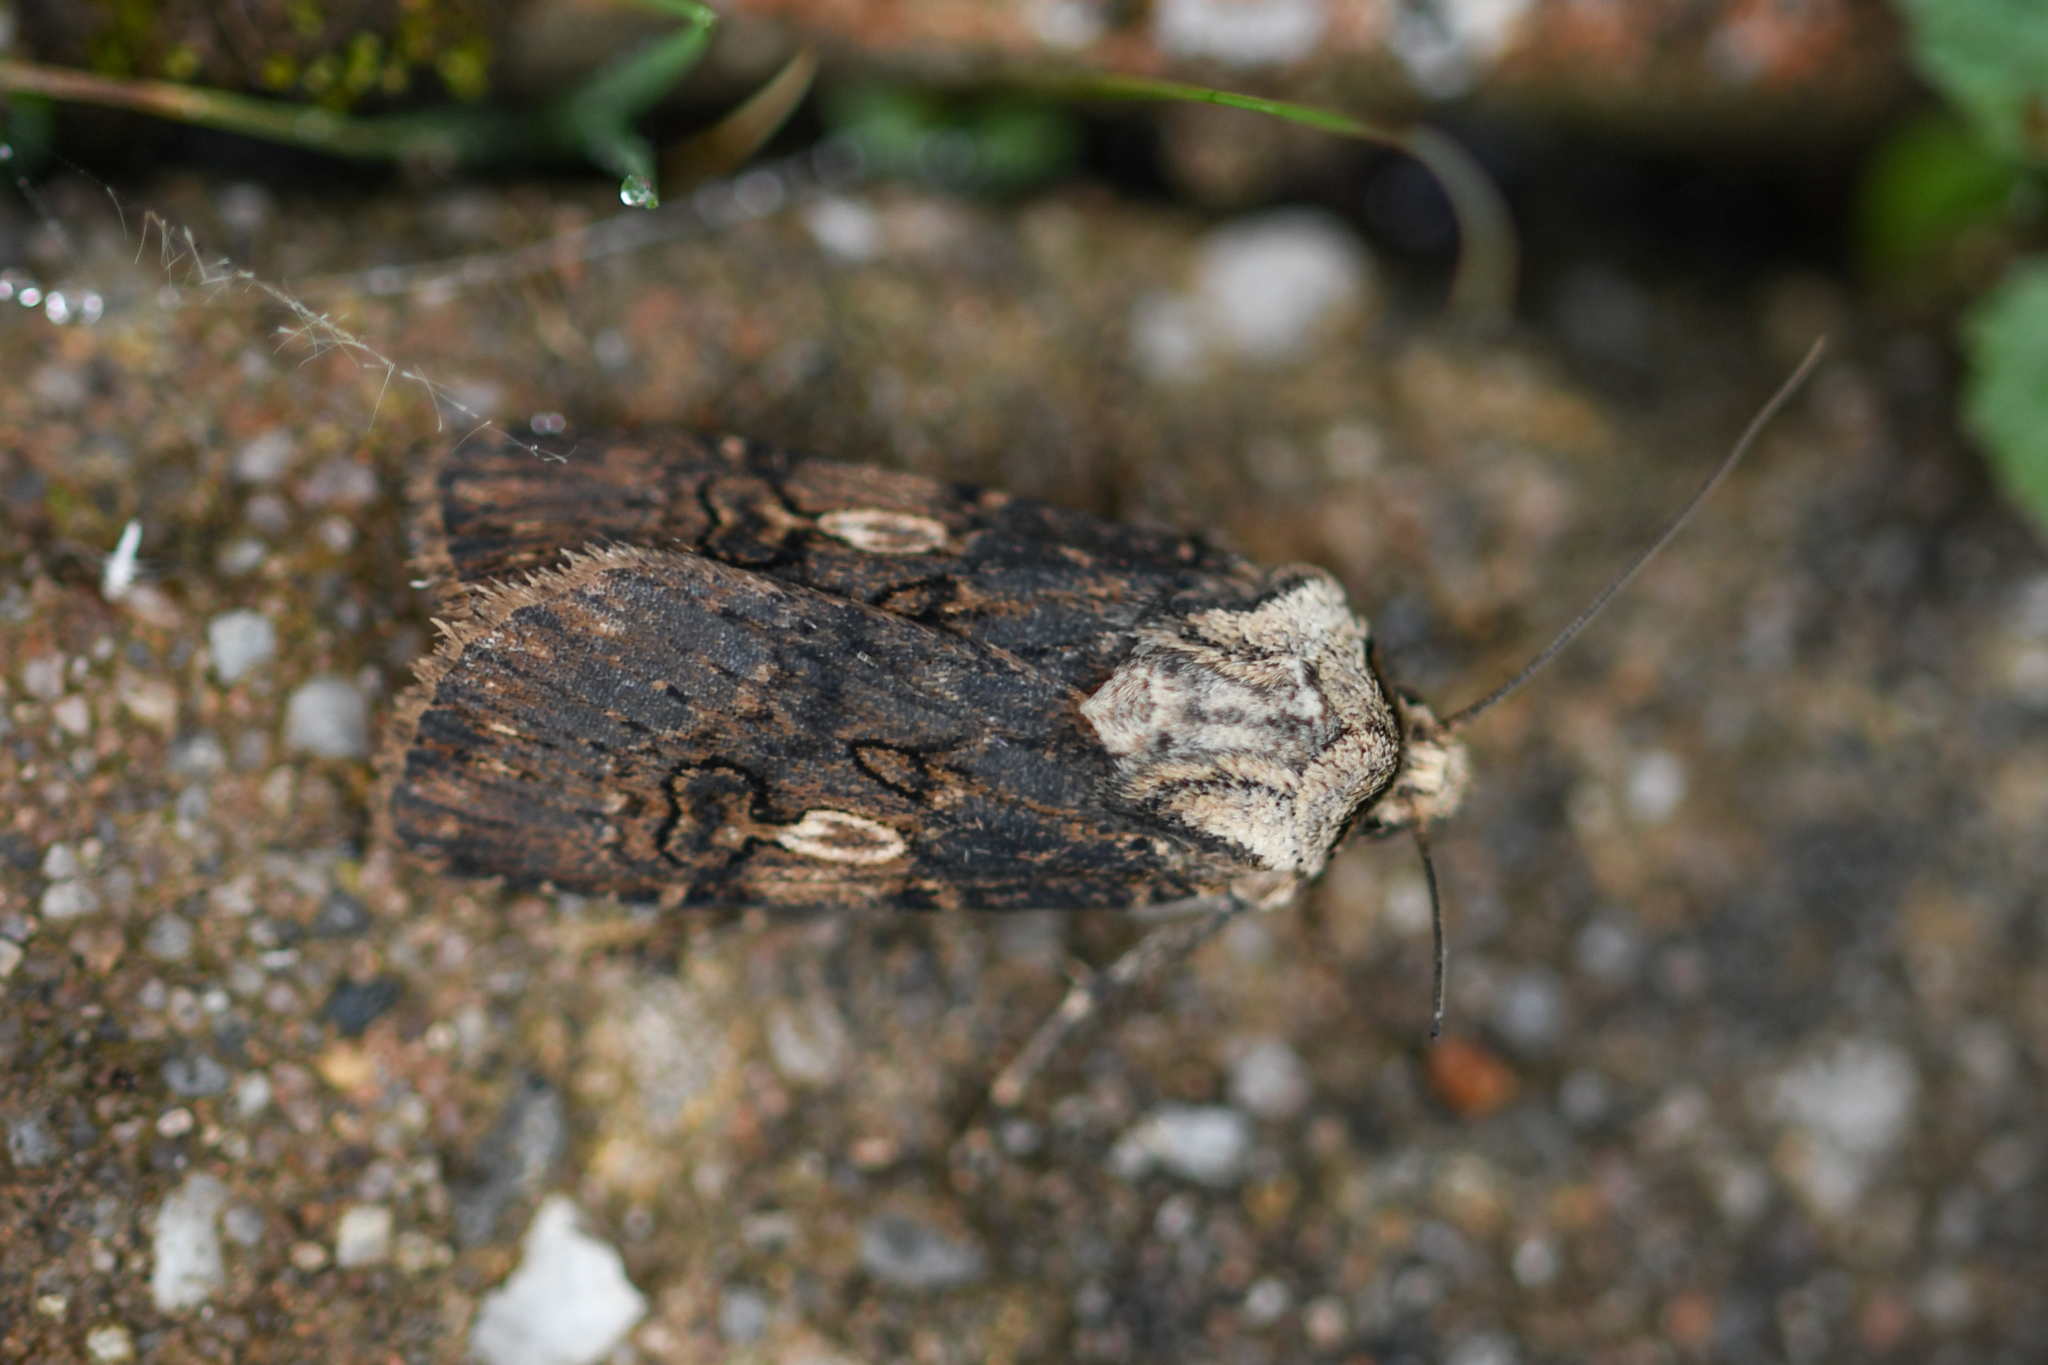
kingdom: Animalia
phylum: Arthropoda
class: Insecta
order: Lepidoptera
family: Noctuidae
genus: Agrotis
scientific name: Agrotis puta
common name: Shuttle-shaped dart
